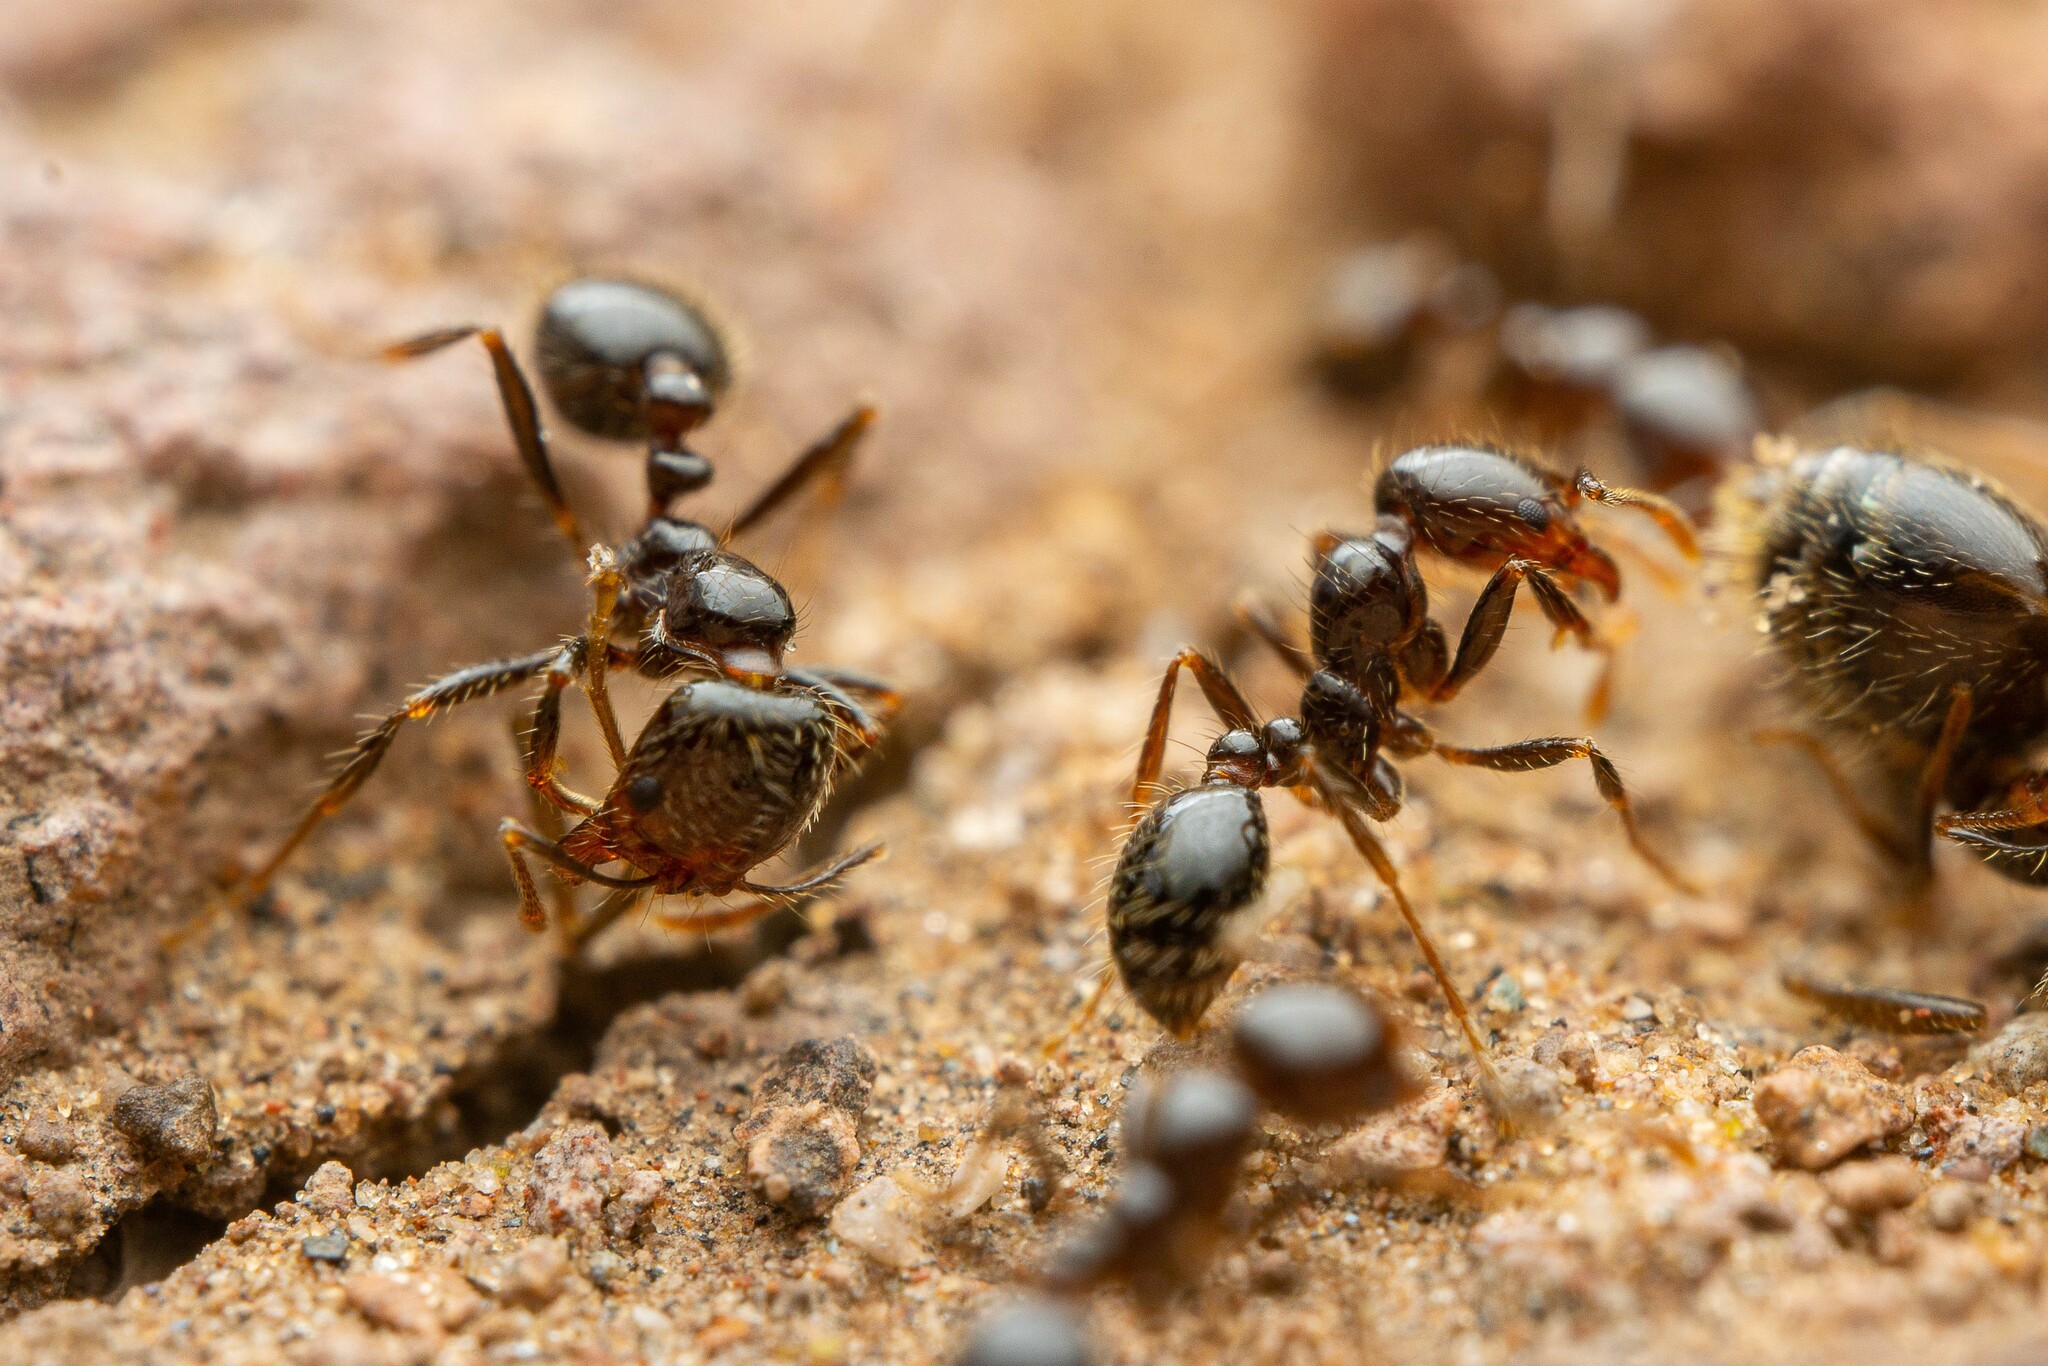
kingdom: Animalia
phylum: Arthropoda
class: Insecta
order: Hymenoptera
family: Formicidae
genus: Solenopsis
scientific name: Solenopsis xyloni
